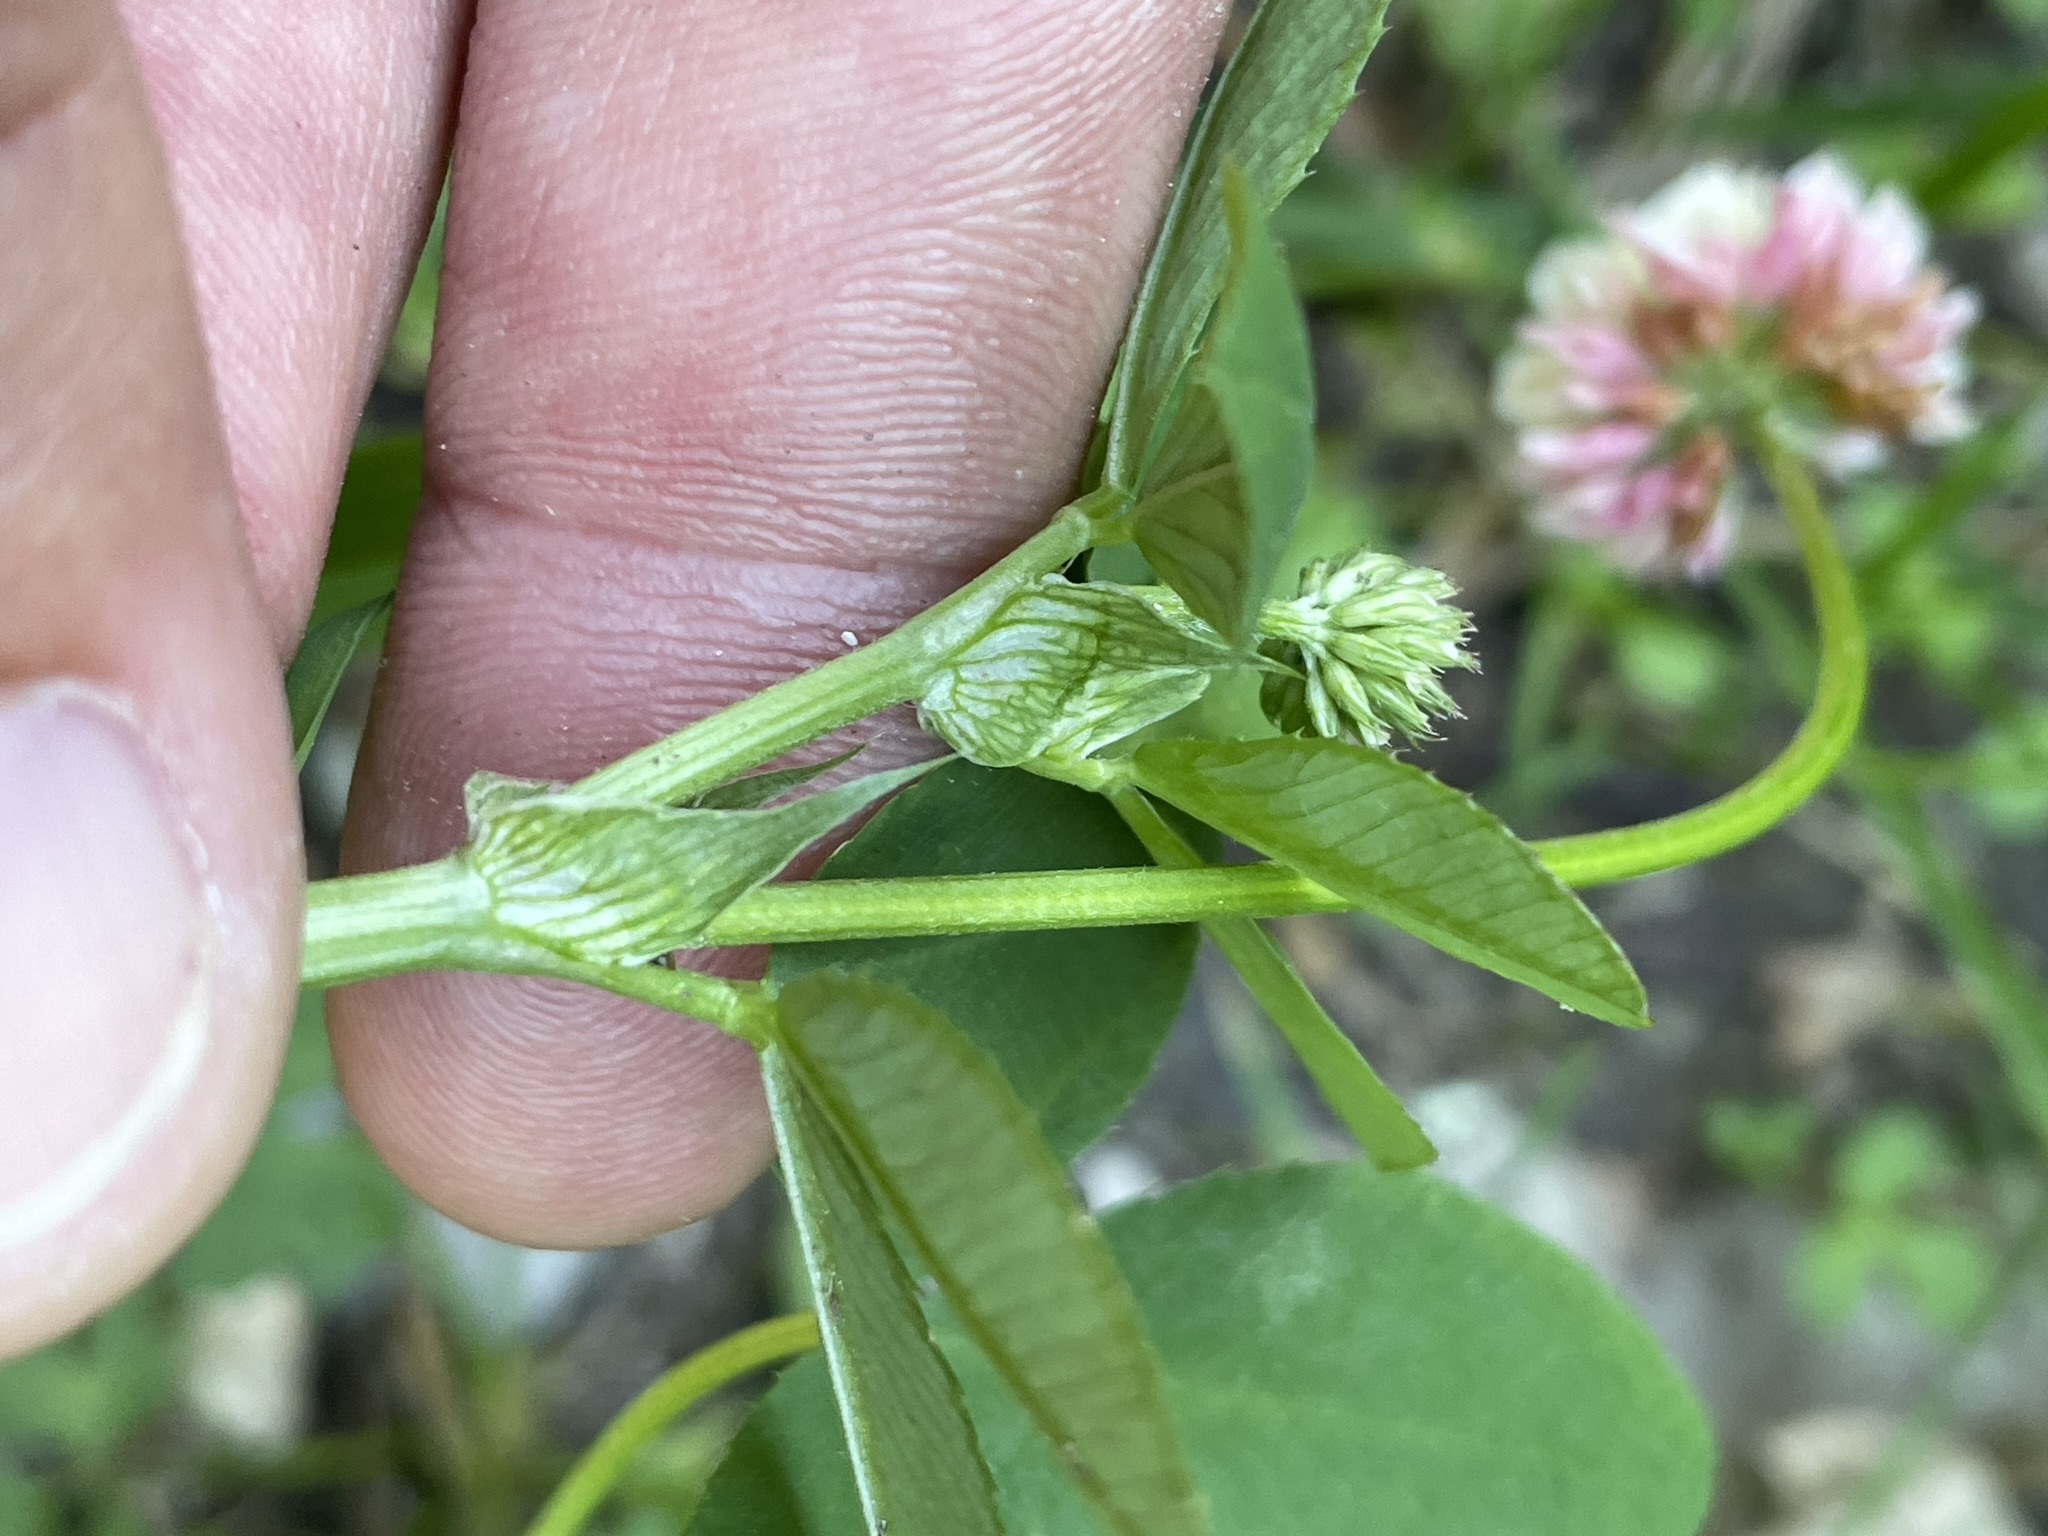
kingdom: Plantae
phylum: Tracheophyta
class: Magnoliopsida
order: Fabales
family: Fabaceae
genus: Trifolium
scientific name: Trifolium hybridum
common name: Alsike clover
